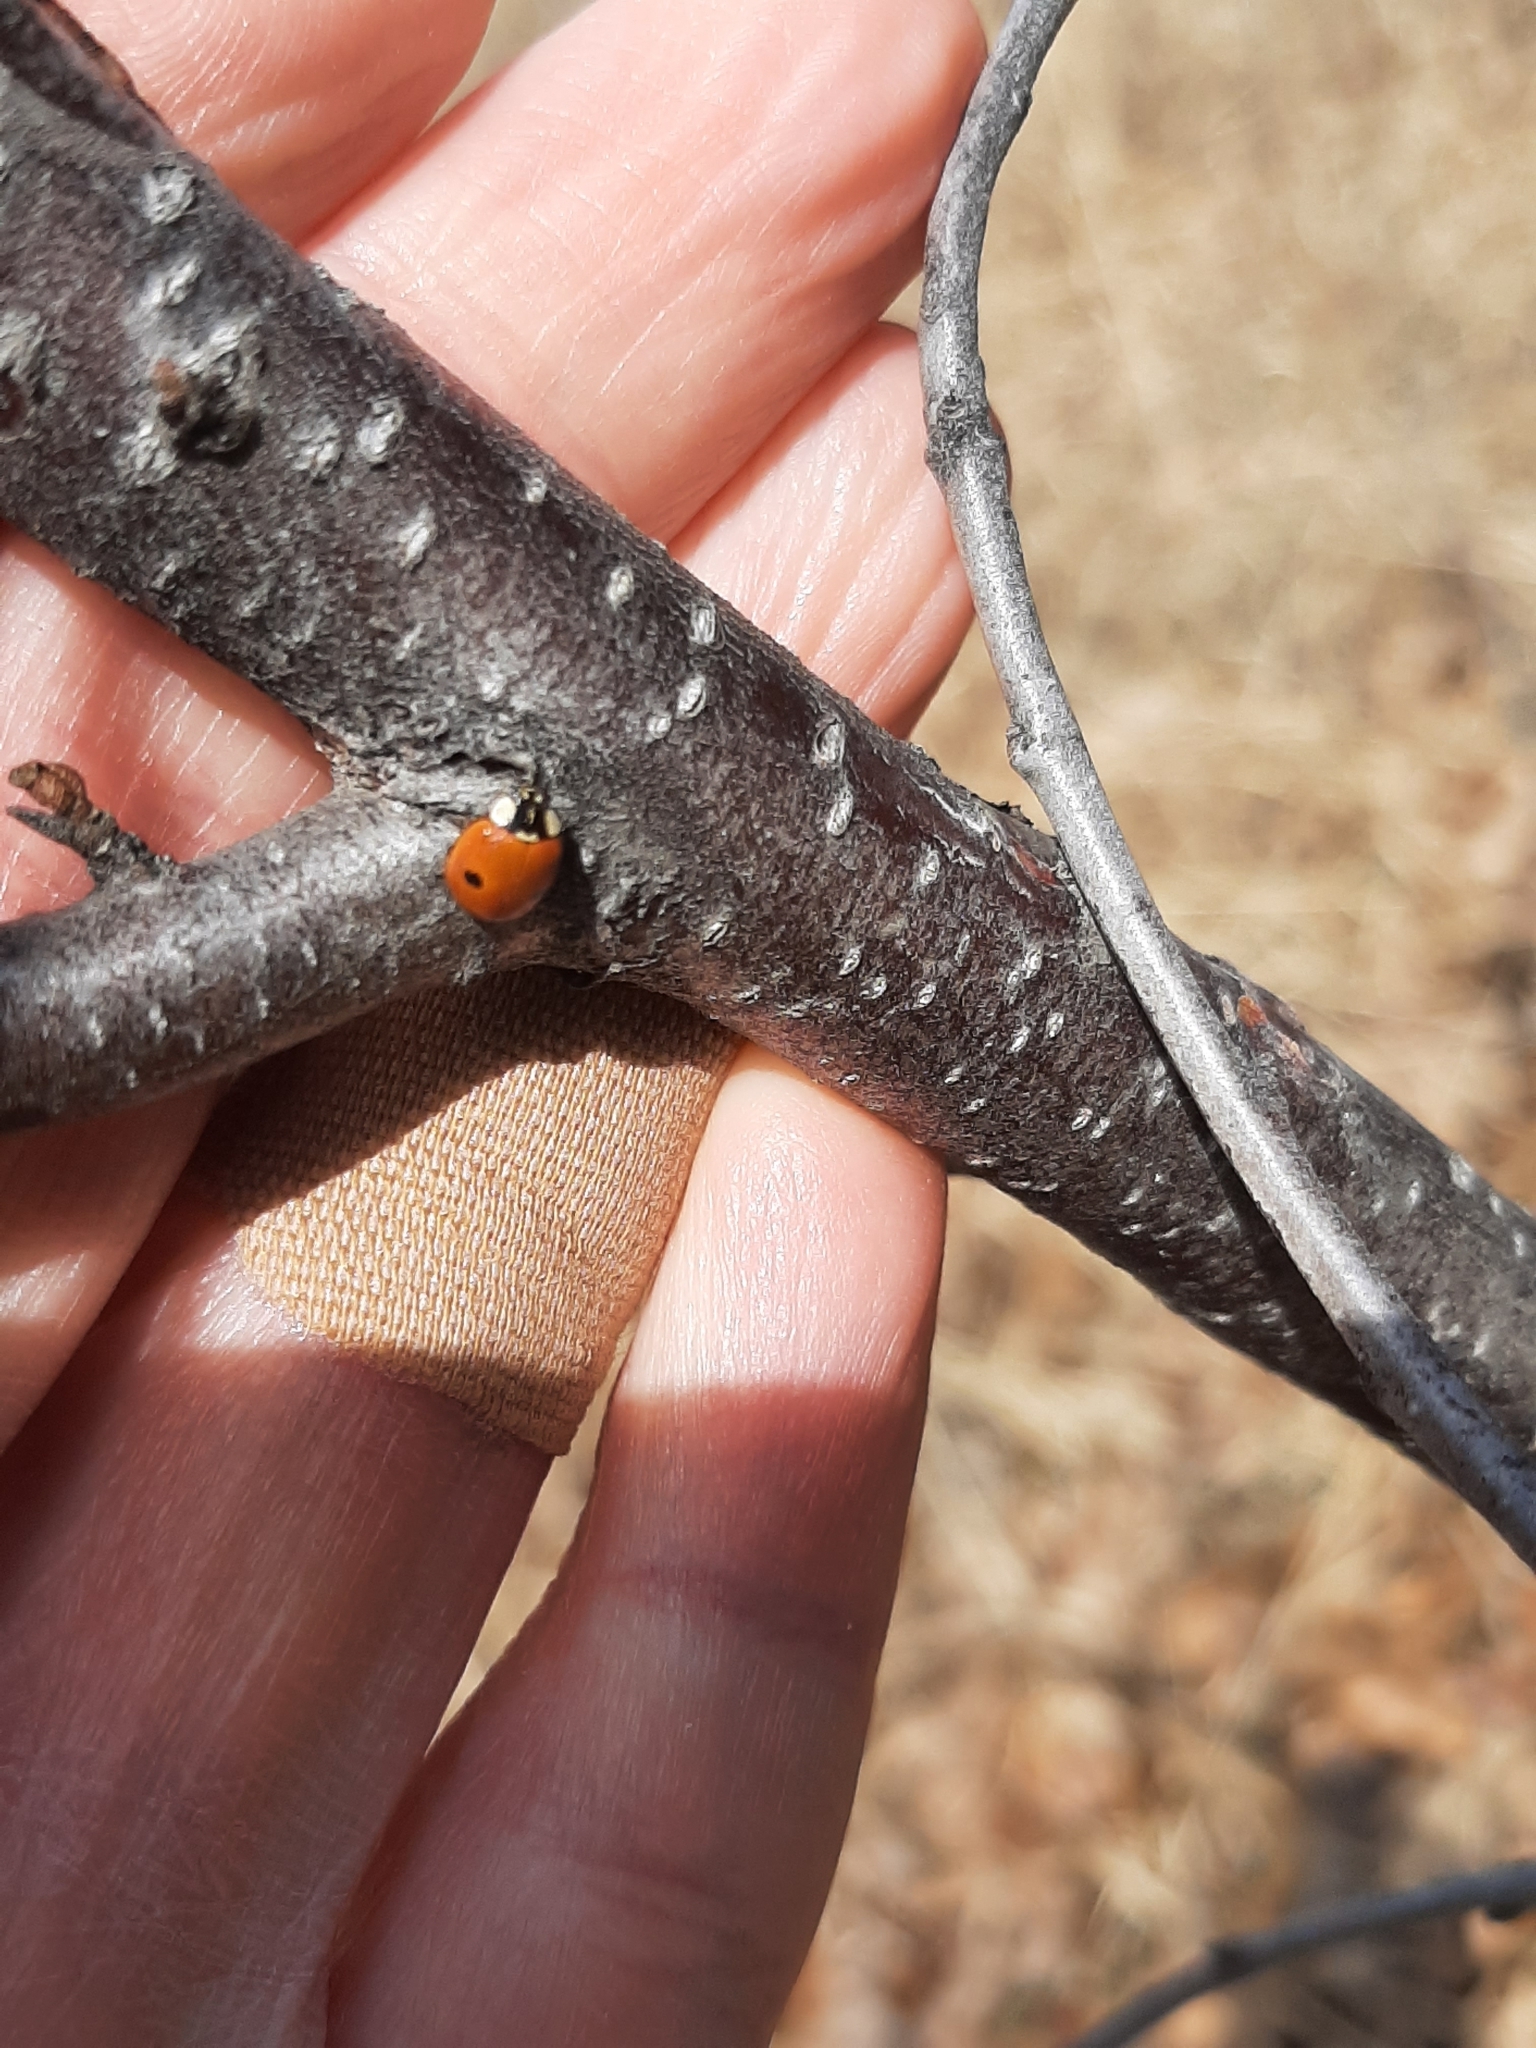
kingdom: Animalia
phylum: Arthropoda
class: Insecta
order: Coleoptera
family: Coccinellidae
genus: Adalia
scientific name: Adalia bipunctata
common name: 2-spot ladybird
